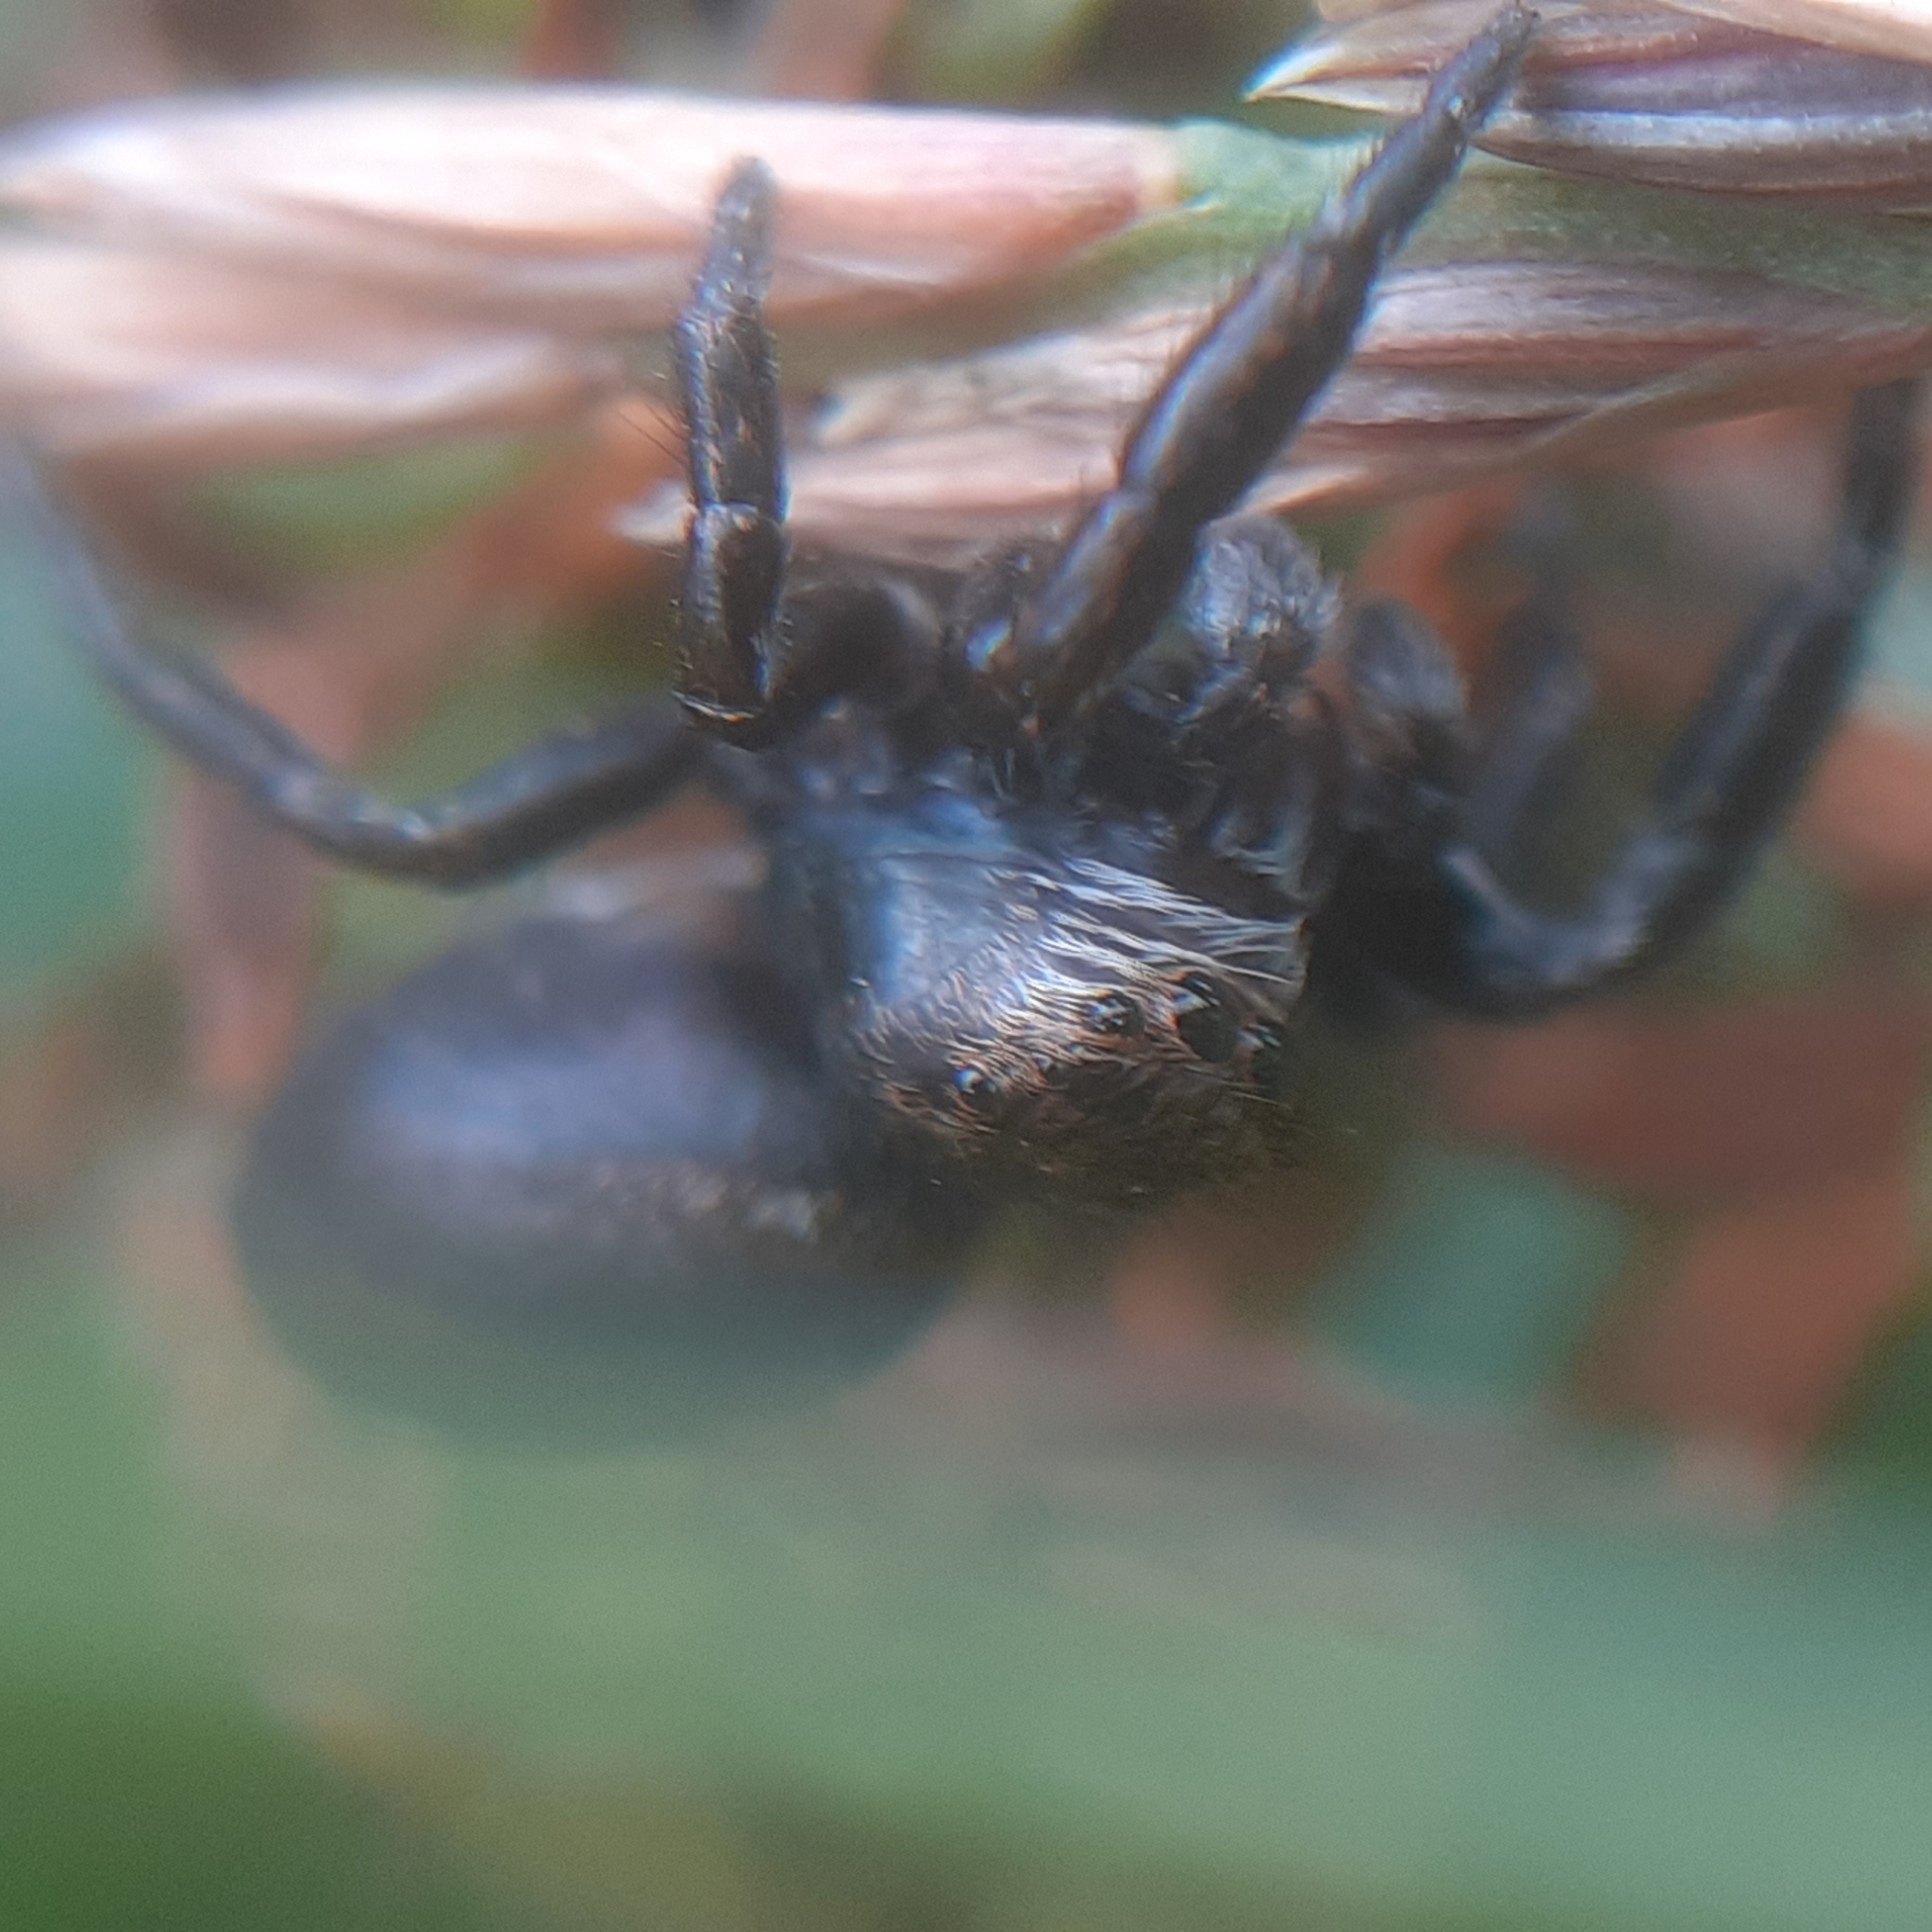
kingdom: Animalia
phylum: Arthropoda
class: Arachnida
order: Araneae
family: Salticidae
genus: Evarcha
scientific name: Evarcha arcuata
